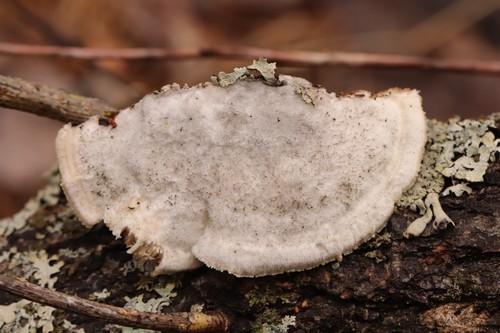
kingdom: Fungi
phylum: Basidiomycota
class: Agaricomycetes
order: Polyporales
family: Polyporaceae
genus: Trametes
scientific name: Trametes suaveolens
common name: Fragrant bracket
